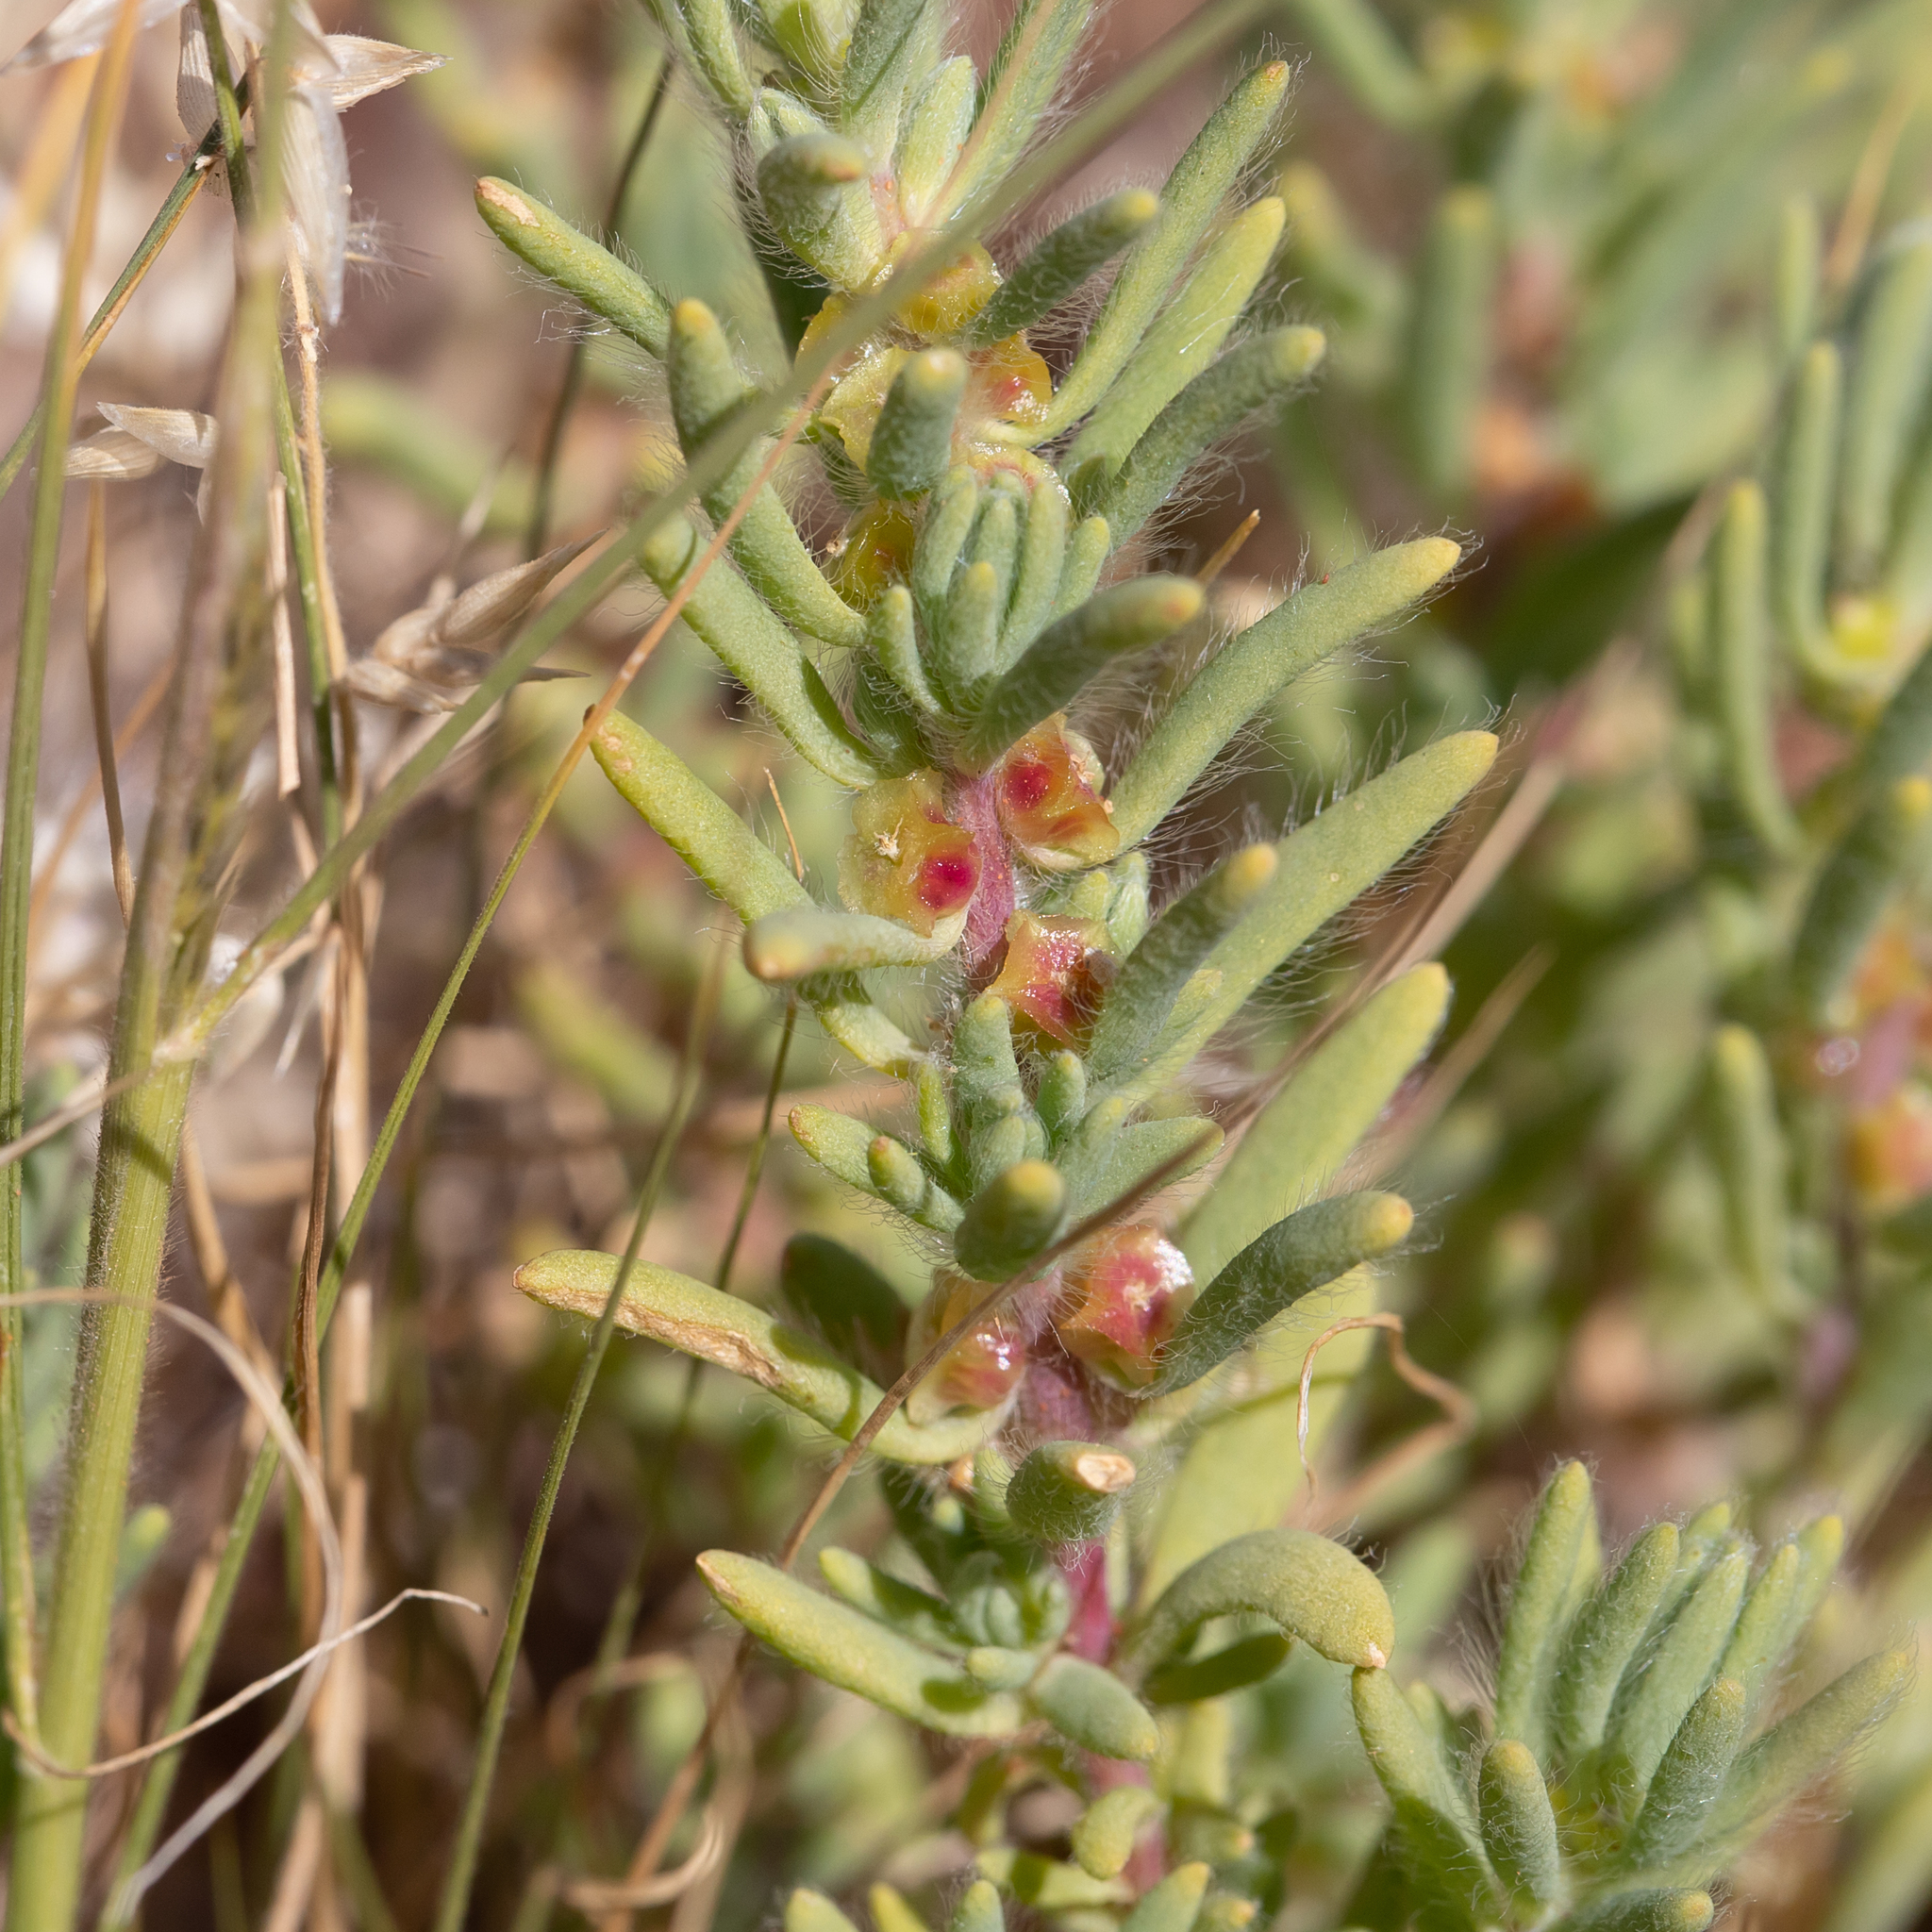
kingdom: Plantae
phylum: Tracheophyta
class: Magnoliopsida
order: Caryophyllales
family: Amaranthaceae
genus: Sclerolaena
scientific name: Sclerolaena brachyptera
